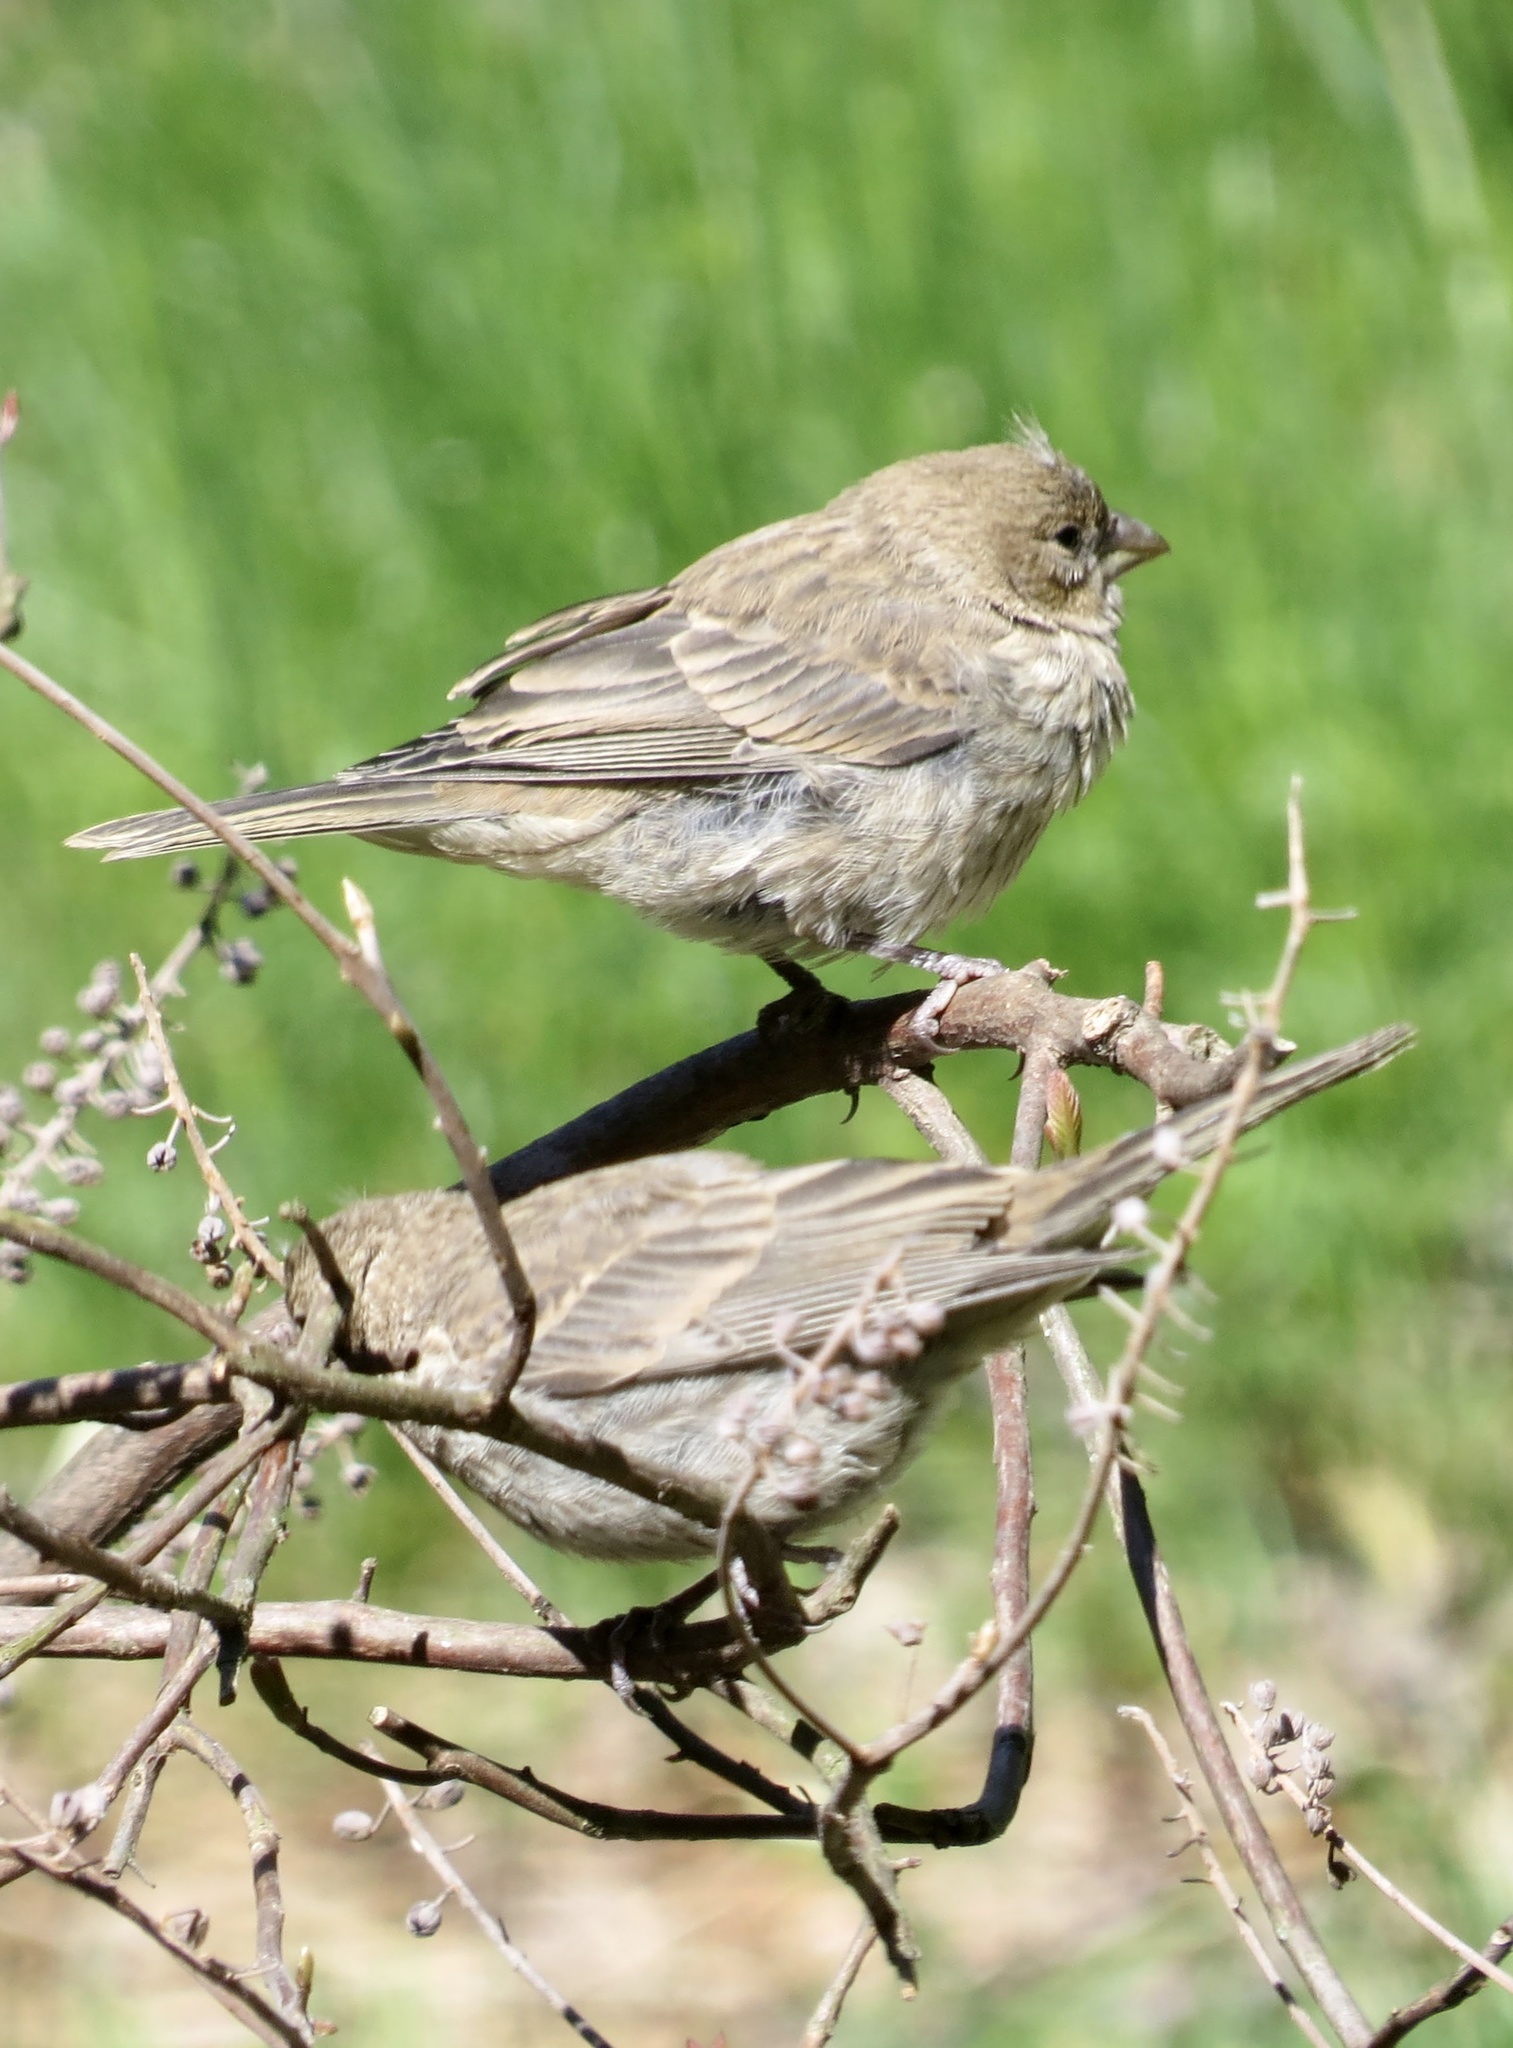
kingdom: Animalia
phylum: Chordata
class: Aves
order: Passeriformes
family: Fringillidae
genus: Haemorhous
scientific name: Haemorhous mexicanus
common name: House finch
